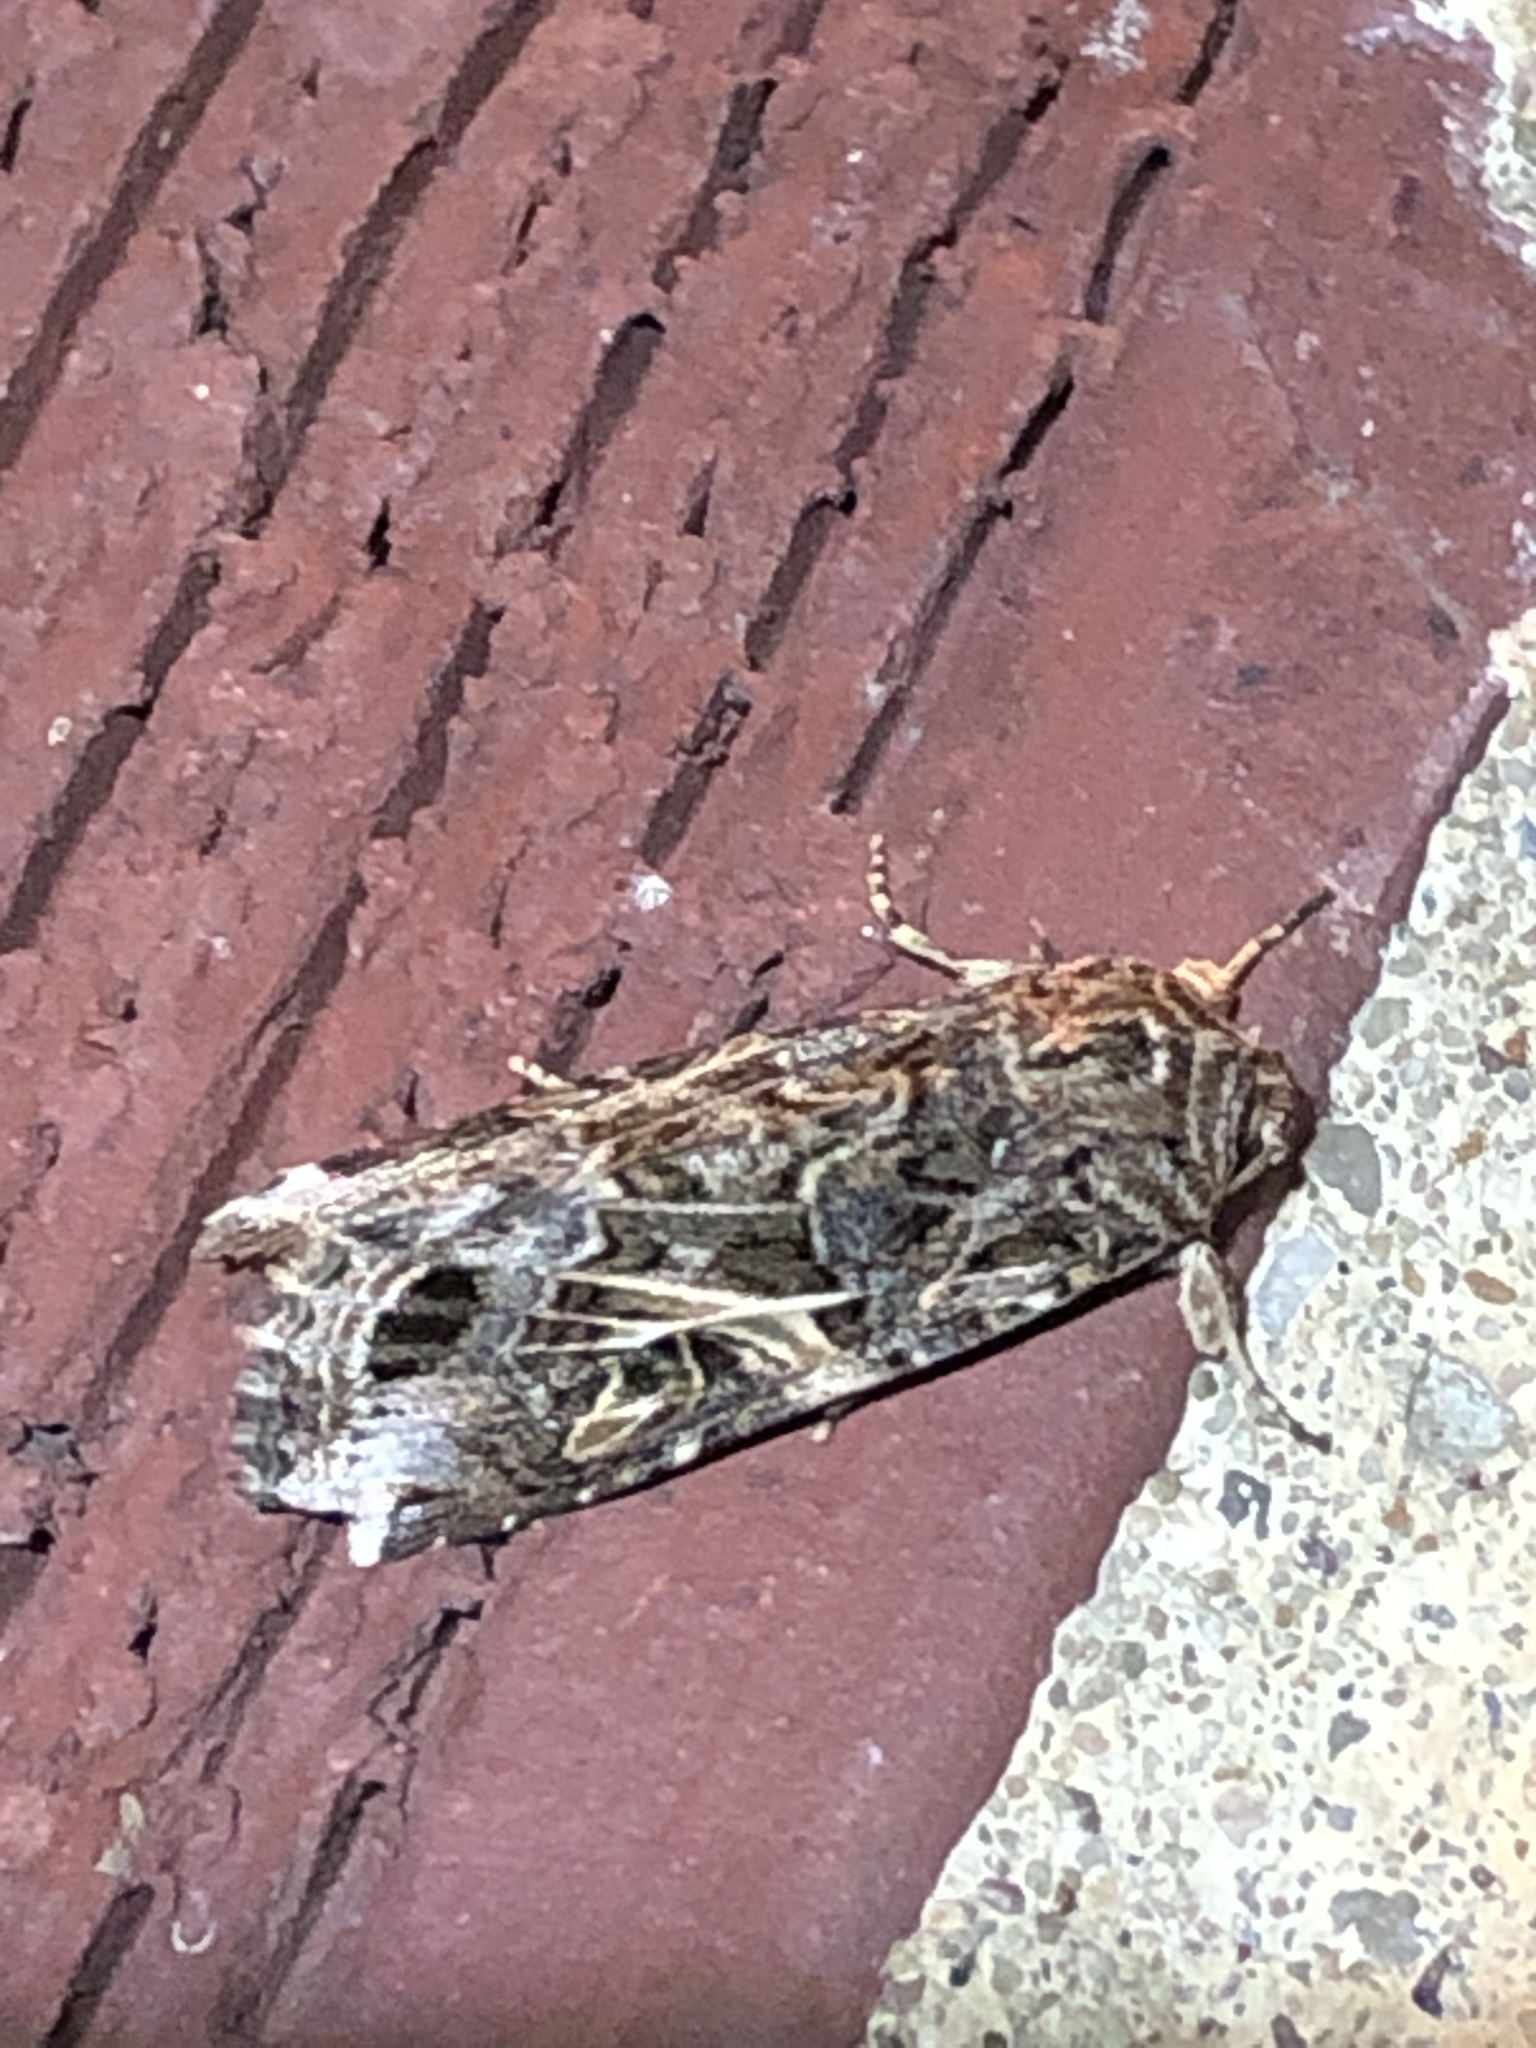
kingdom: Animalia
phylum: Arthropoda
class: Insecta
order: Lepidoptera
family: Noctuidae
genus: Spodoptera
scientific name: Spodoptera ornithogalli
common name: Yellow-striped armyworm
